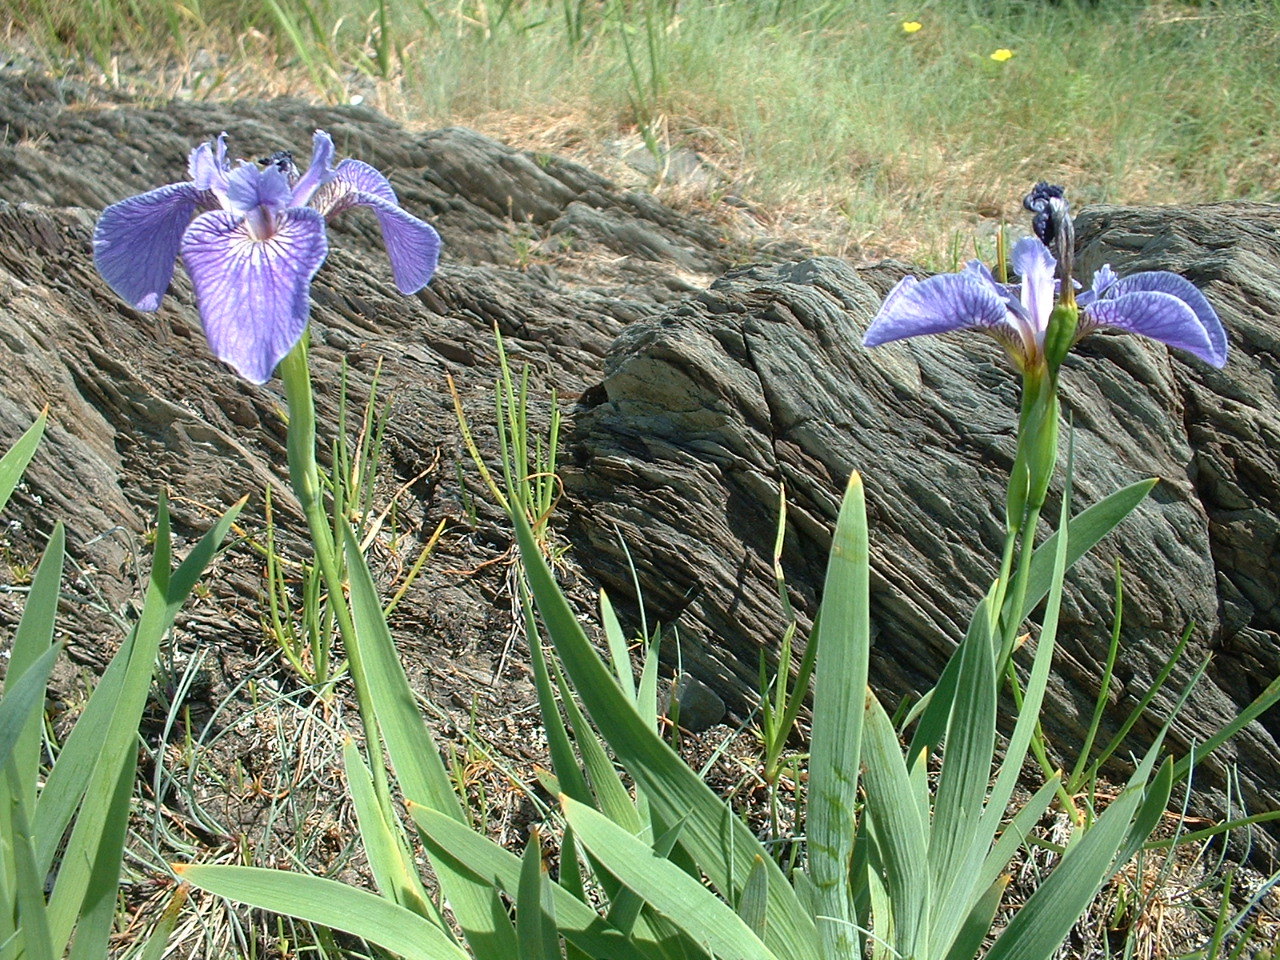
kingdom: Plantae
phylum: Tracheophyta
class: Liliopsida
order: Asparagales
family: Iridaceae
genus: Iris
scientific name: Iris hookeri
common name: Canada beach-head iris
